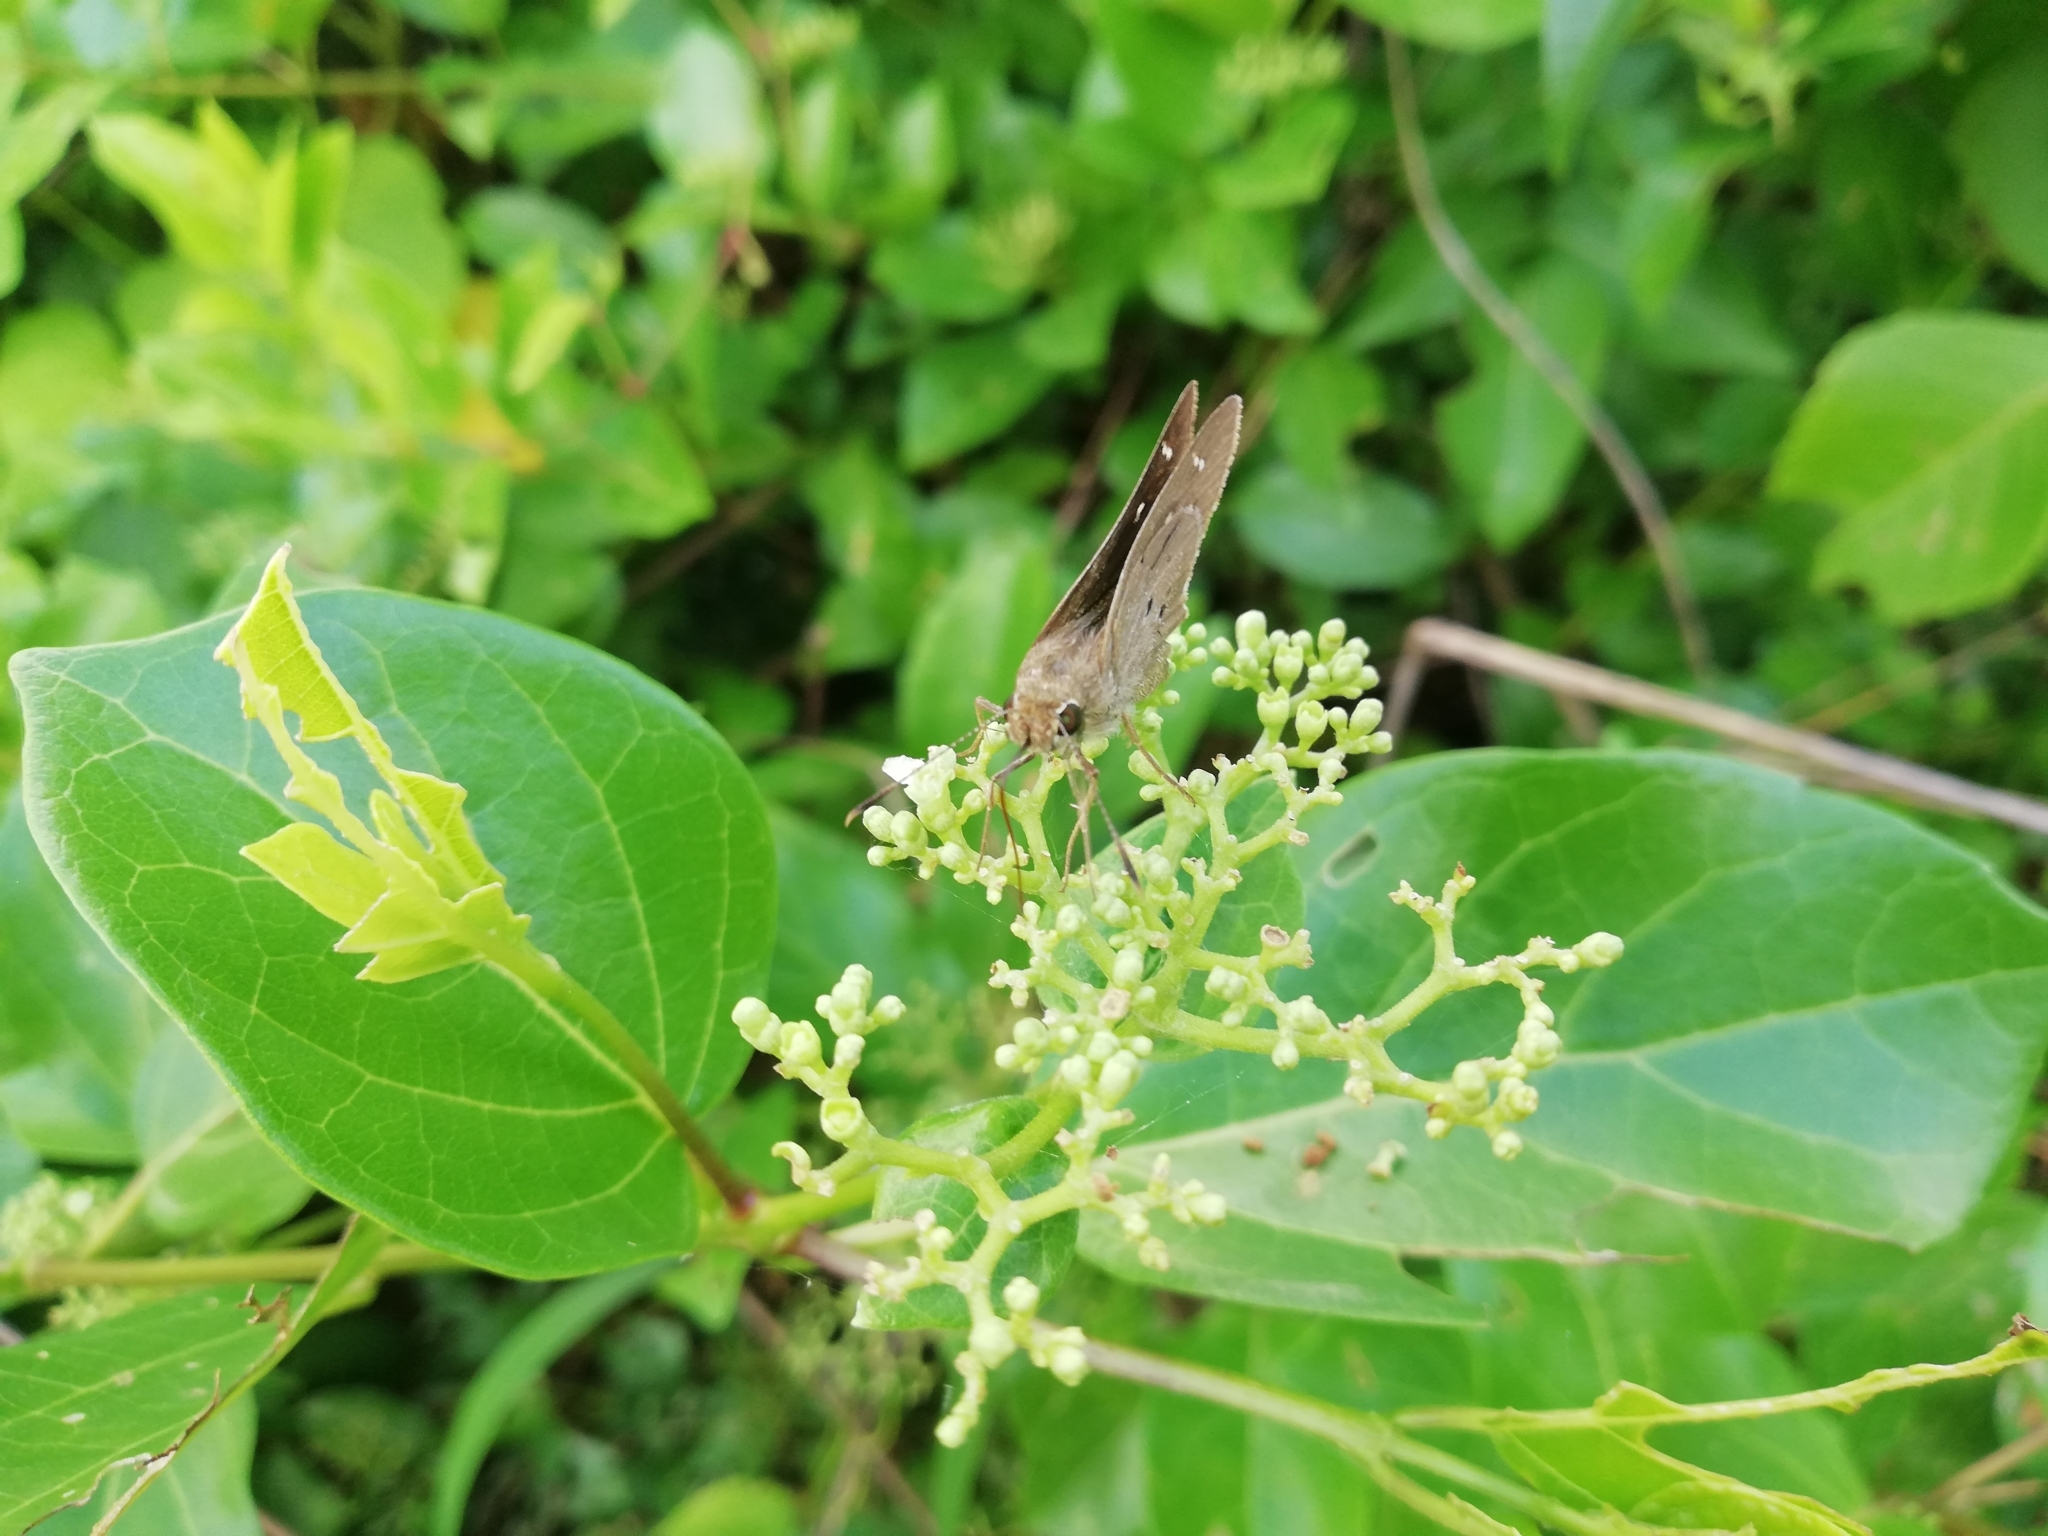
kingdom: Animalia
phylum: Arthropoda
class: Insecta
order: Lepidoptera
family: Hesperiidae
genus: Suastus
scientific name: Suastus gremius
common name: Indian palm bob
